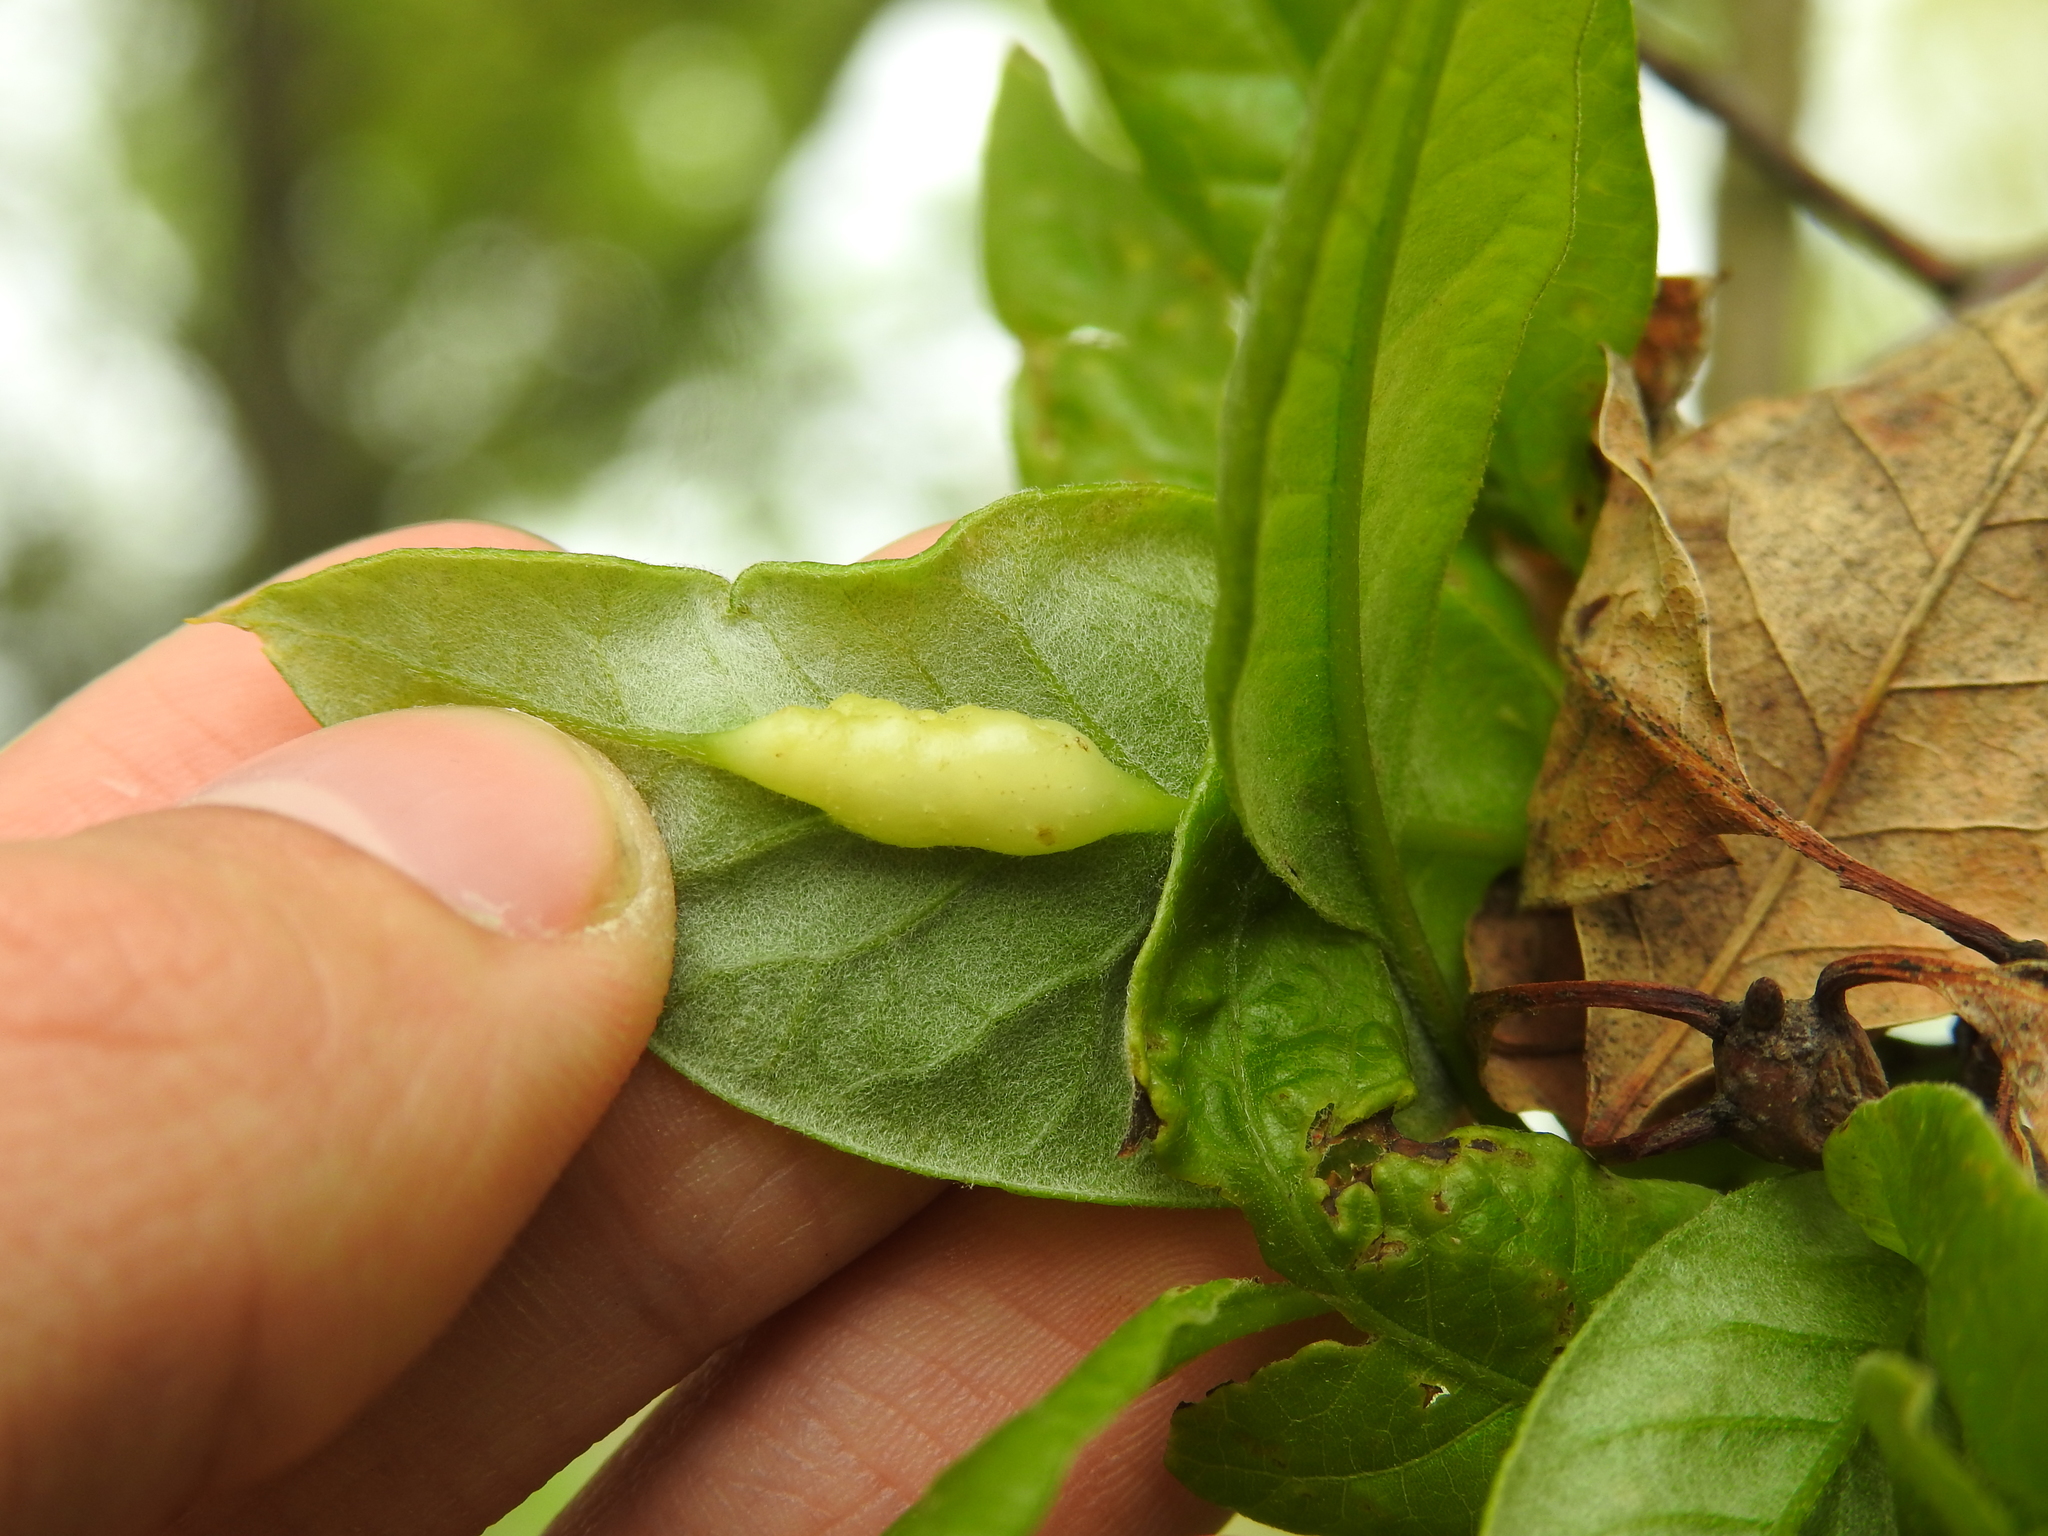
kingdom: Animalia
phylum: Arthropoda
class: Insecta
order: Hymenoptera
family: Cynipidae
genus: Callirhytis
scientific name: Callirhytis
